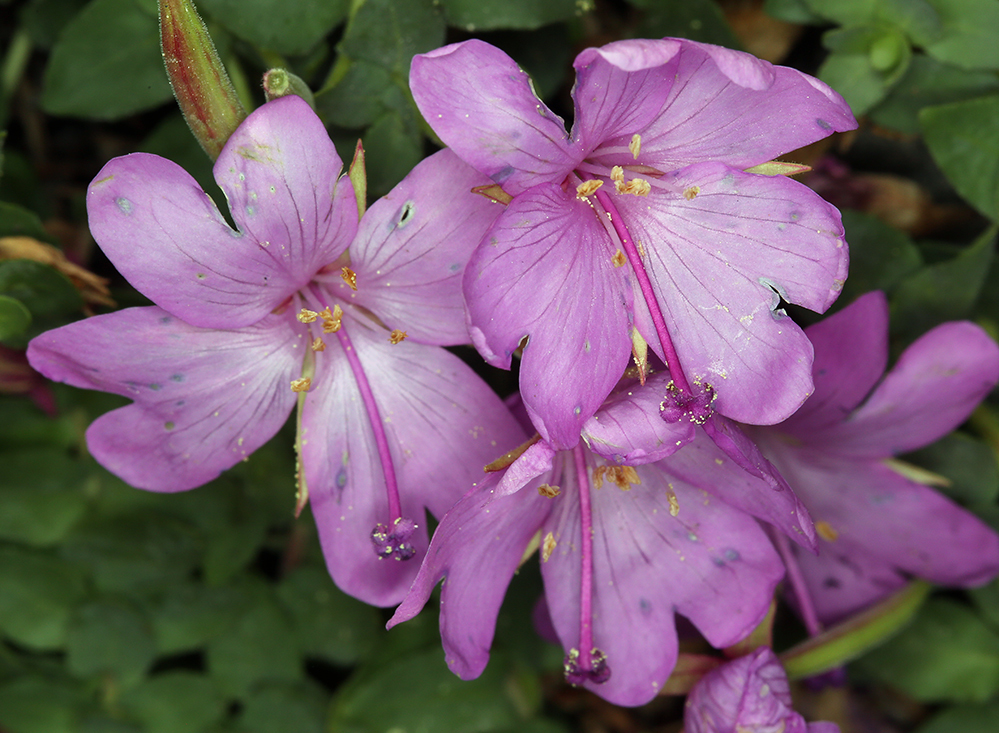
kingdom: Plantae
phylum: Tracheophyta
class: Magnoliopsida
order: Myrtales
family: Onagraceae
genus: Epilobium
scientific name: Epilobium obcordatum
